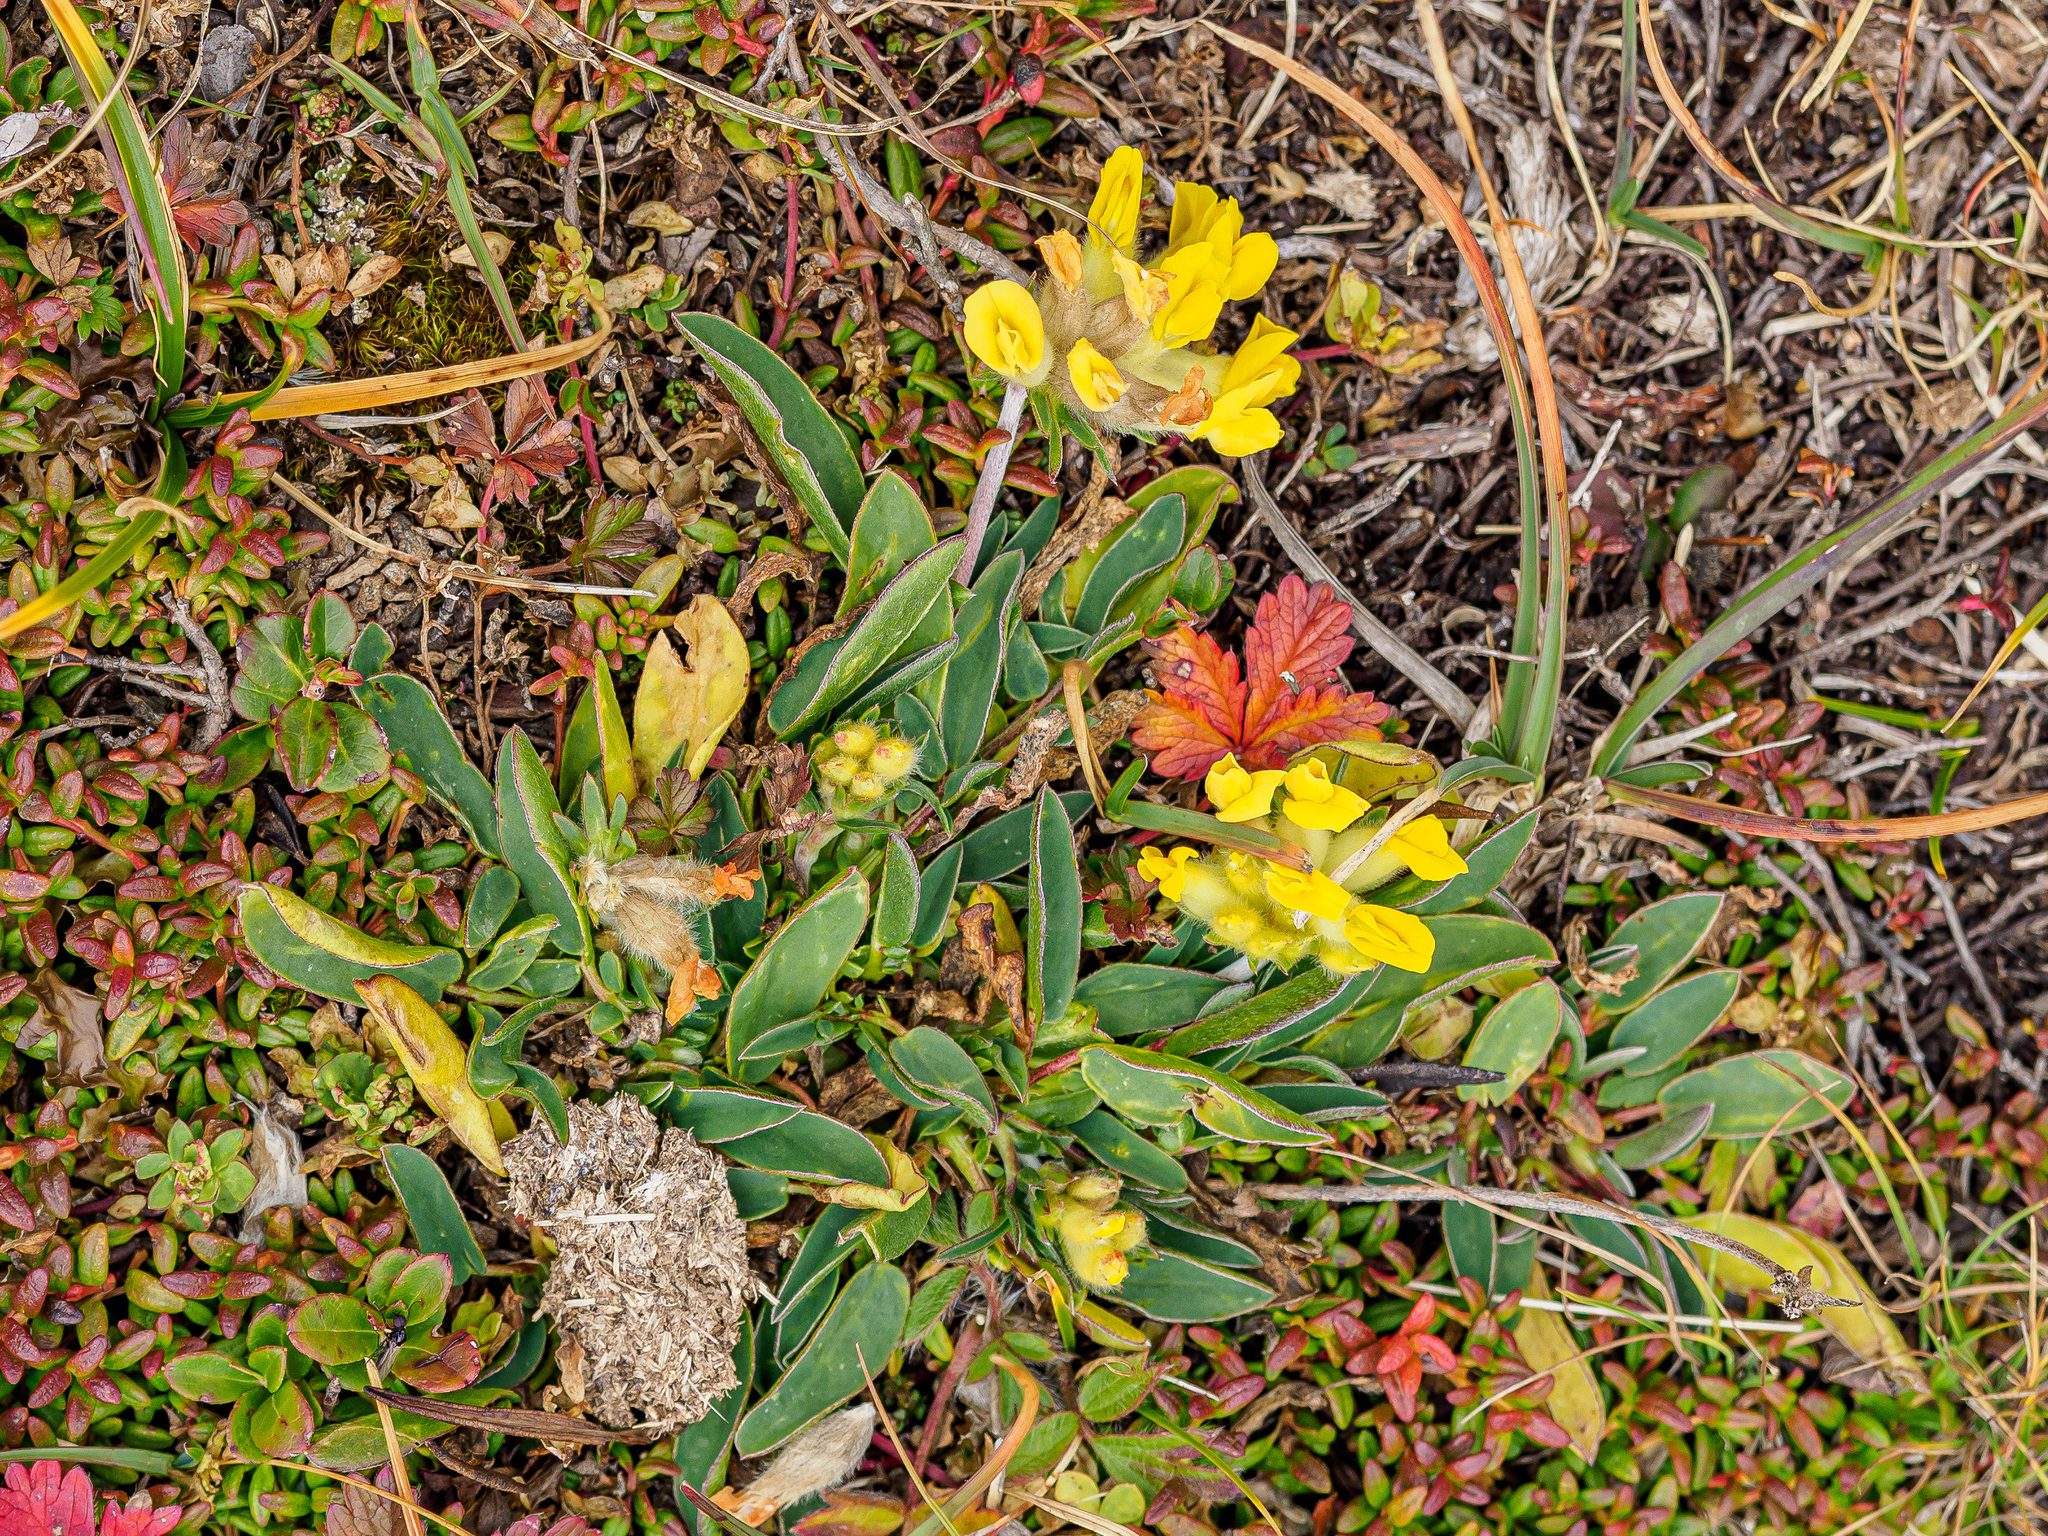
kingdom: Plantae
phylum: Tracheophyta
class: Magnoliopsida
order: Fabales
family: Fabaceae
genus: Anthyllis
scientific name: Anthyllis vulneraria
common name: Kidney vetch
